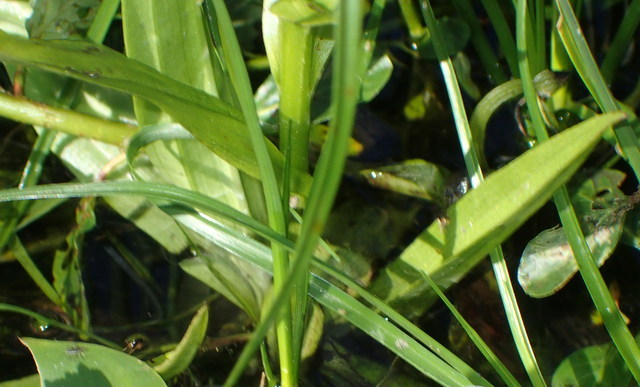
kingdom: Plantae
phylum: Tracheophyta
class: Liliopsida
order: Asparagales
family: Orchidaceae
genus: Habenaria
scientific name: Habenaria repens
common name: Water orchid
